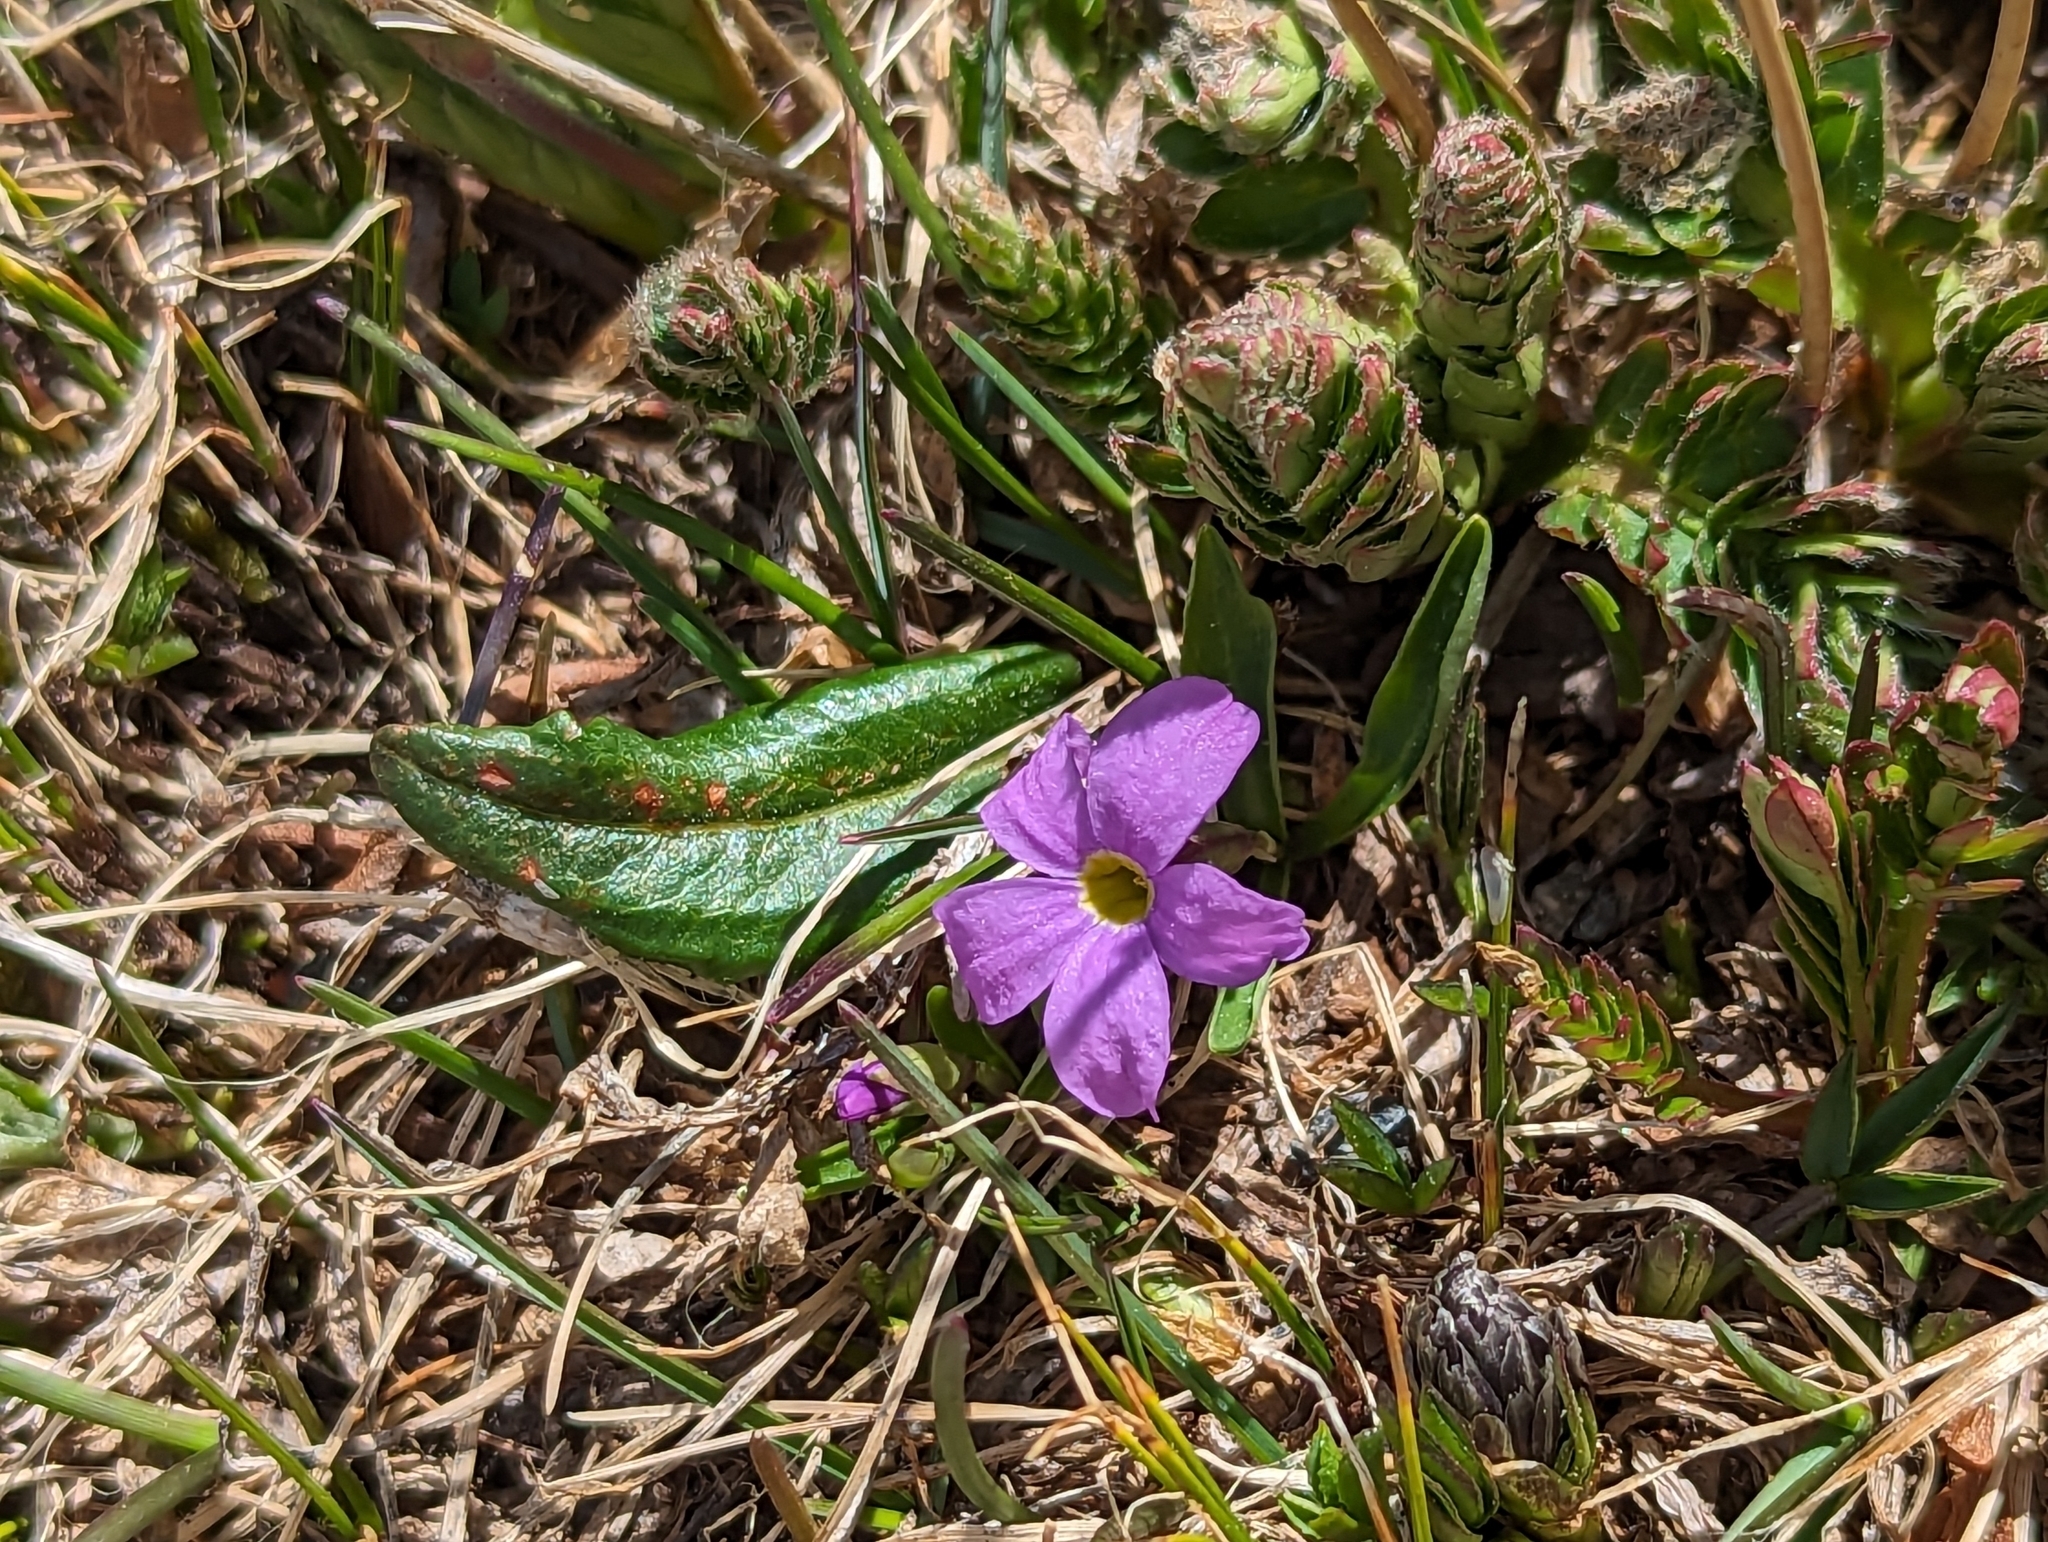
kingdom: Plantae
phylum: Tracheophyta
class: Magnoliopsida
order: Ericales
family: Primulaceae
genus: Primula
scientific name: Primula angustifolia
